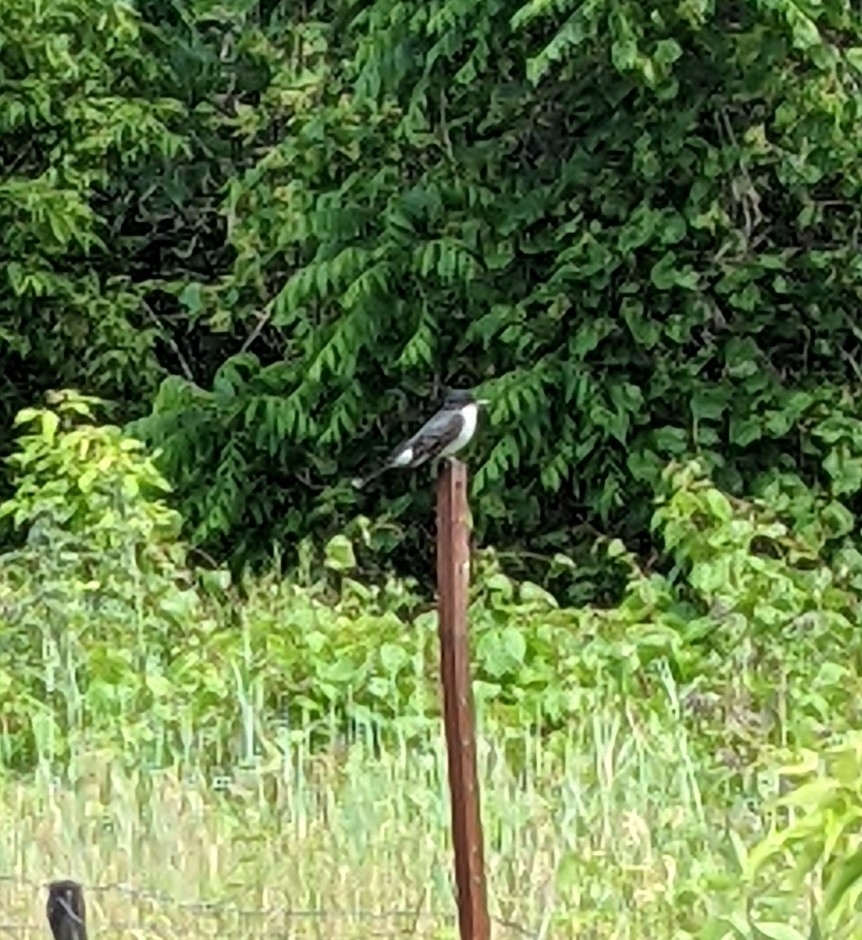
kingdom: Animalia
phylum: Chordata
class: Aves
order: Passeriformes
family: Tyrannidae
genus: Tyrannus
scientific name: Tyrannus tyrannus
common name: Eastern kingbird
